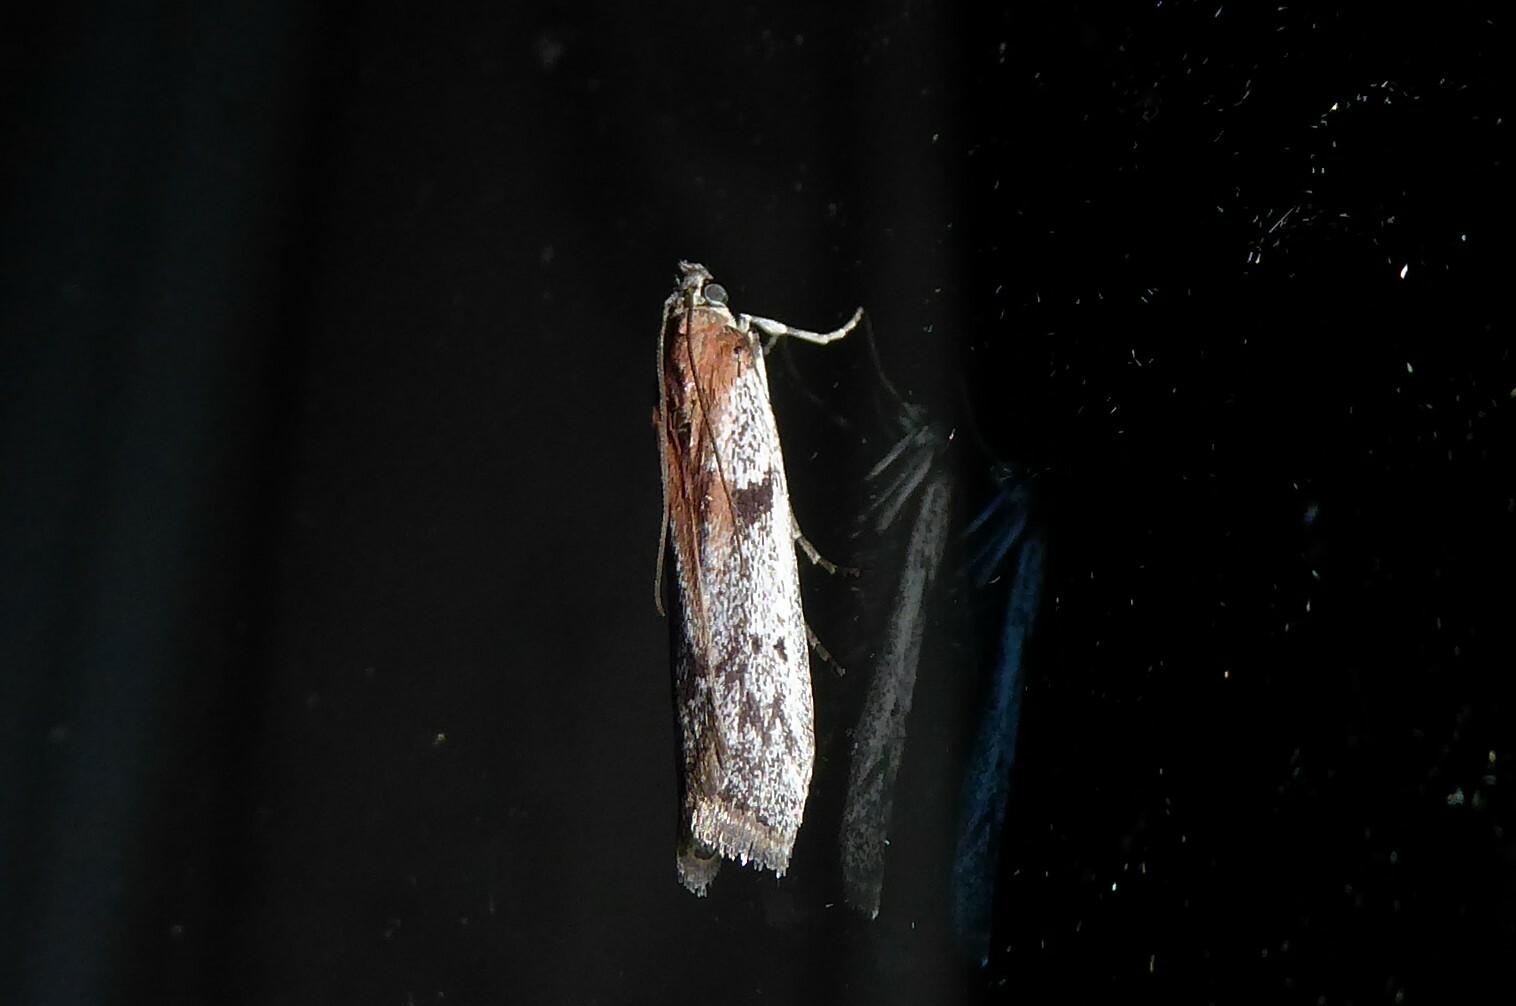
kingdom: Animalia
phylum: Arthropoda
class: Insecta
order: Lepidoptera
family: Pyralidae
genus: Patagoniodes
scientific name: Patagoniodes farinaria
